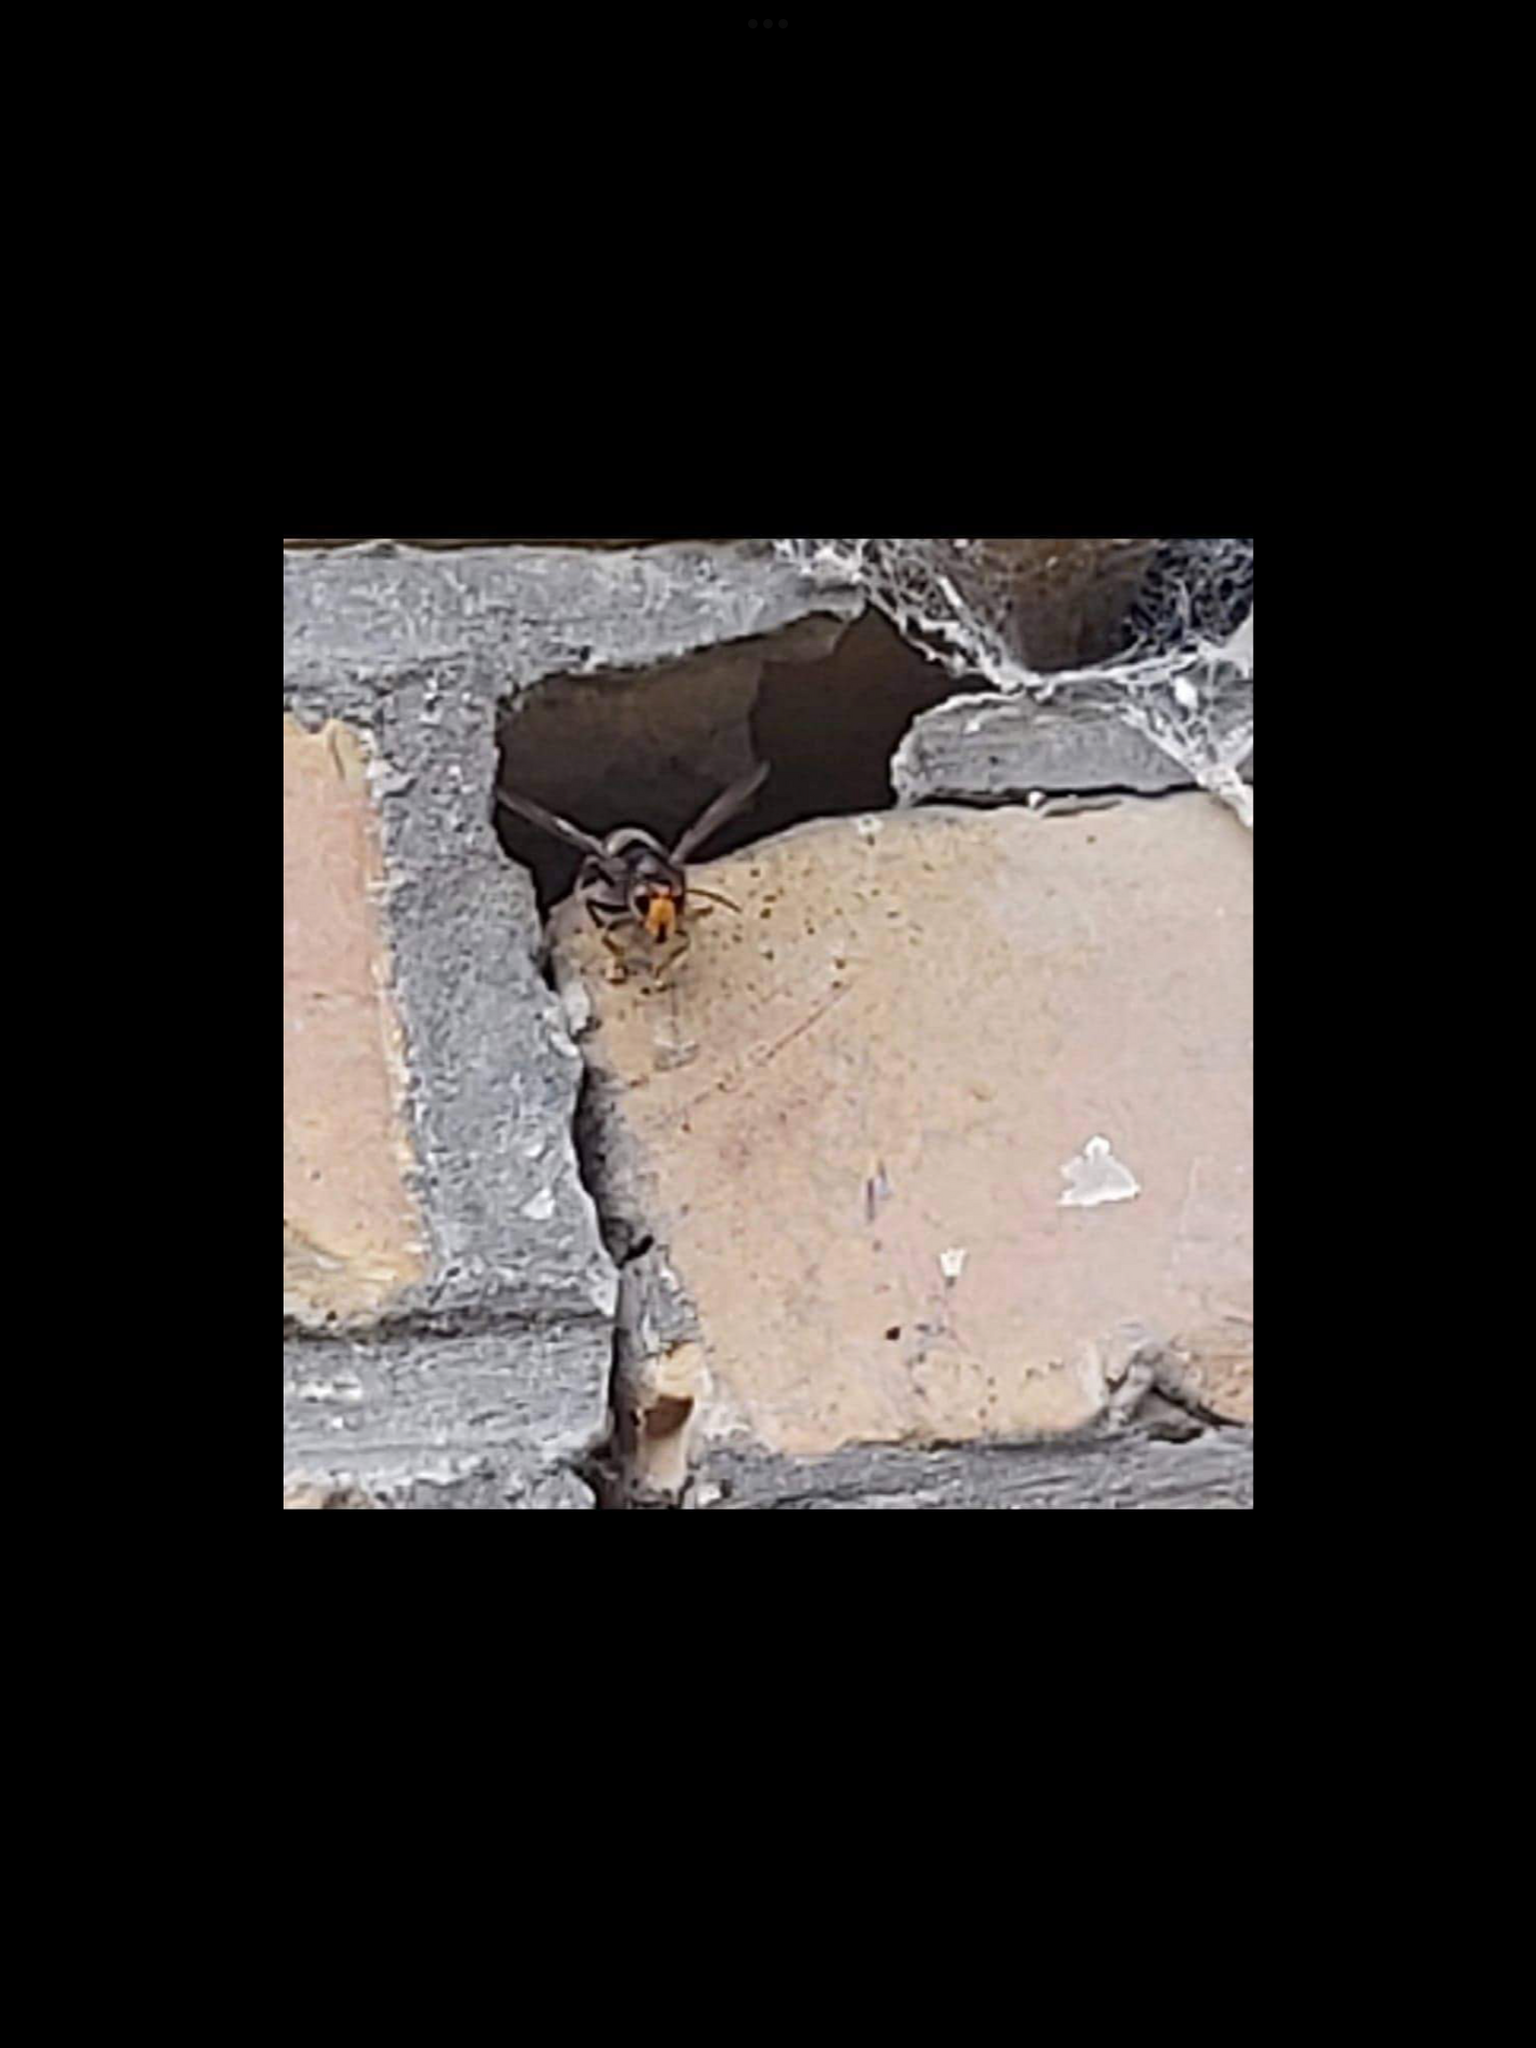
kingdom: Animalia
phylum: Arthropoda
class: Insecta
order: Hymenoptera
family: Vespidae
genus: Vespa
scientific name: Vespa velutina
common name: Asian hornet
